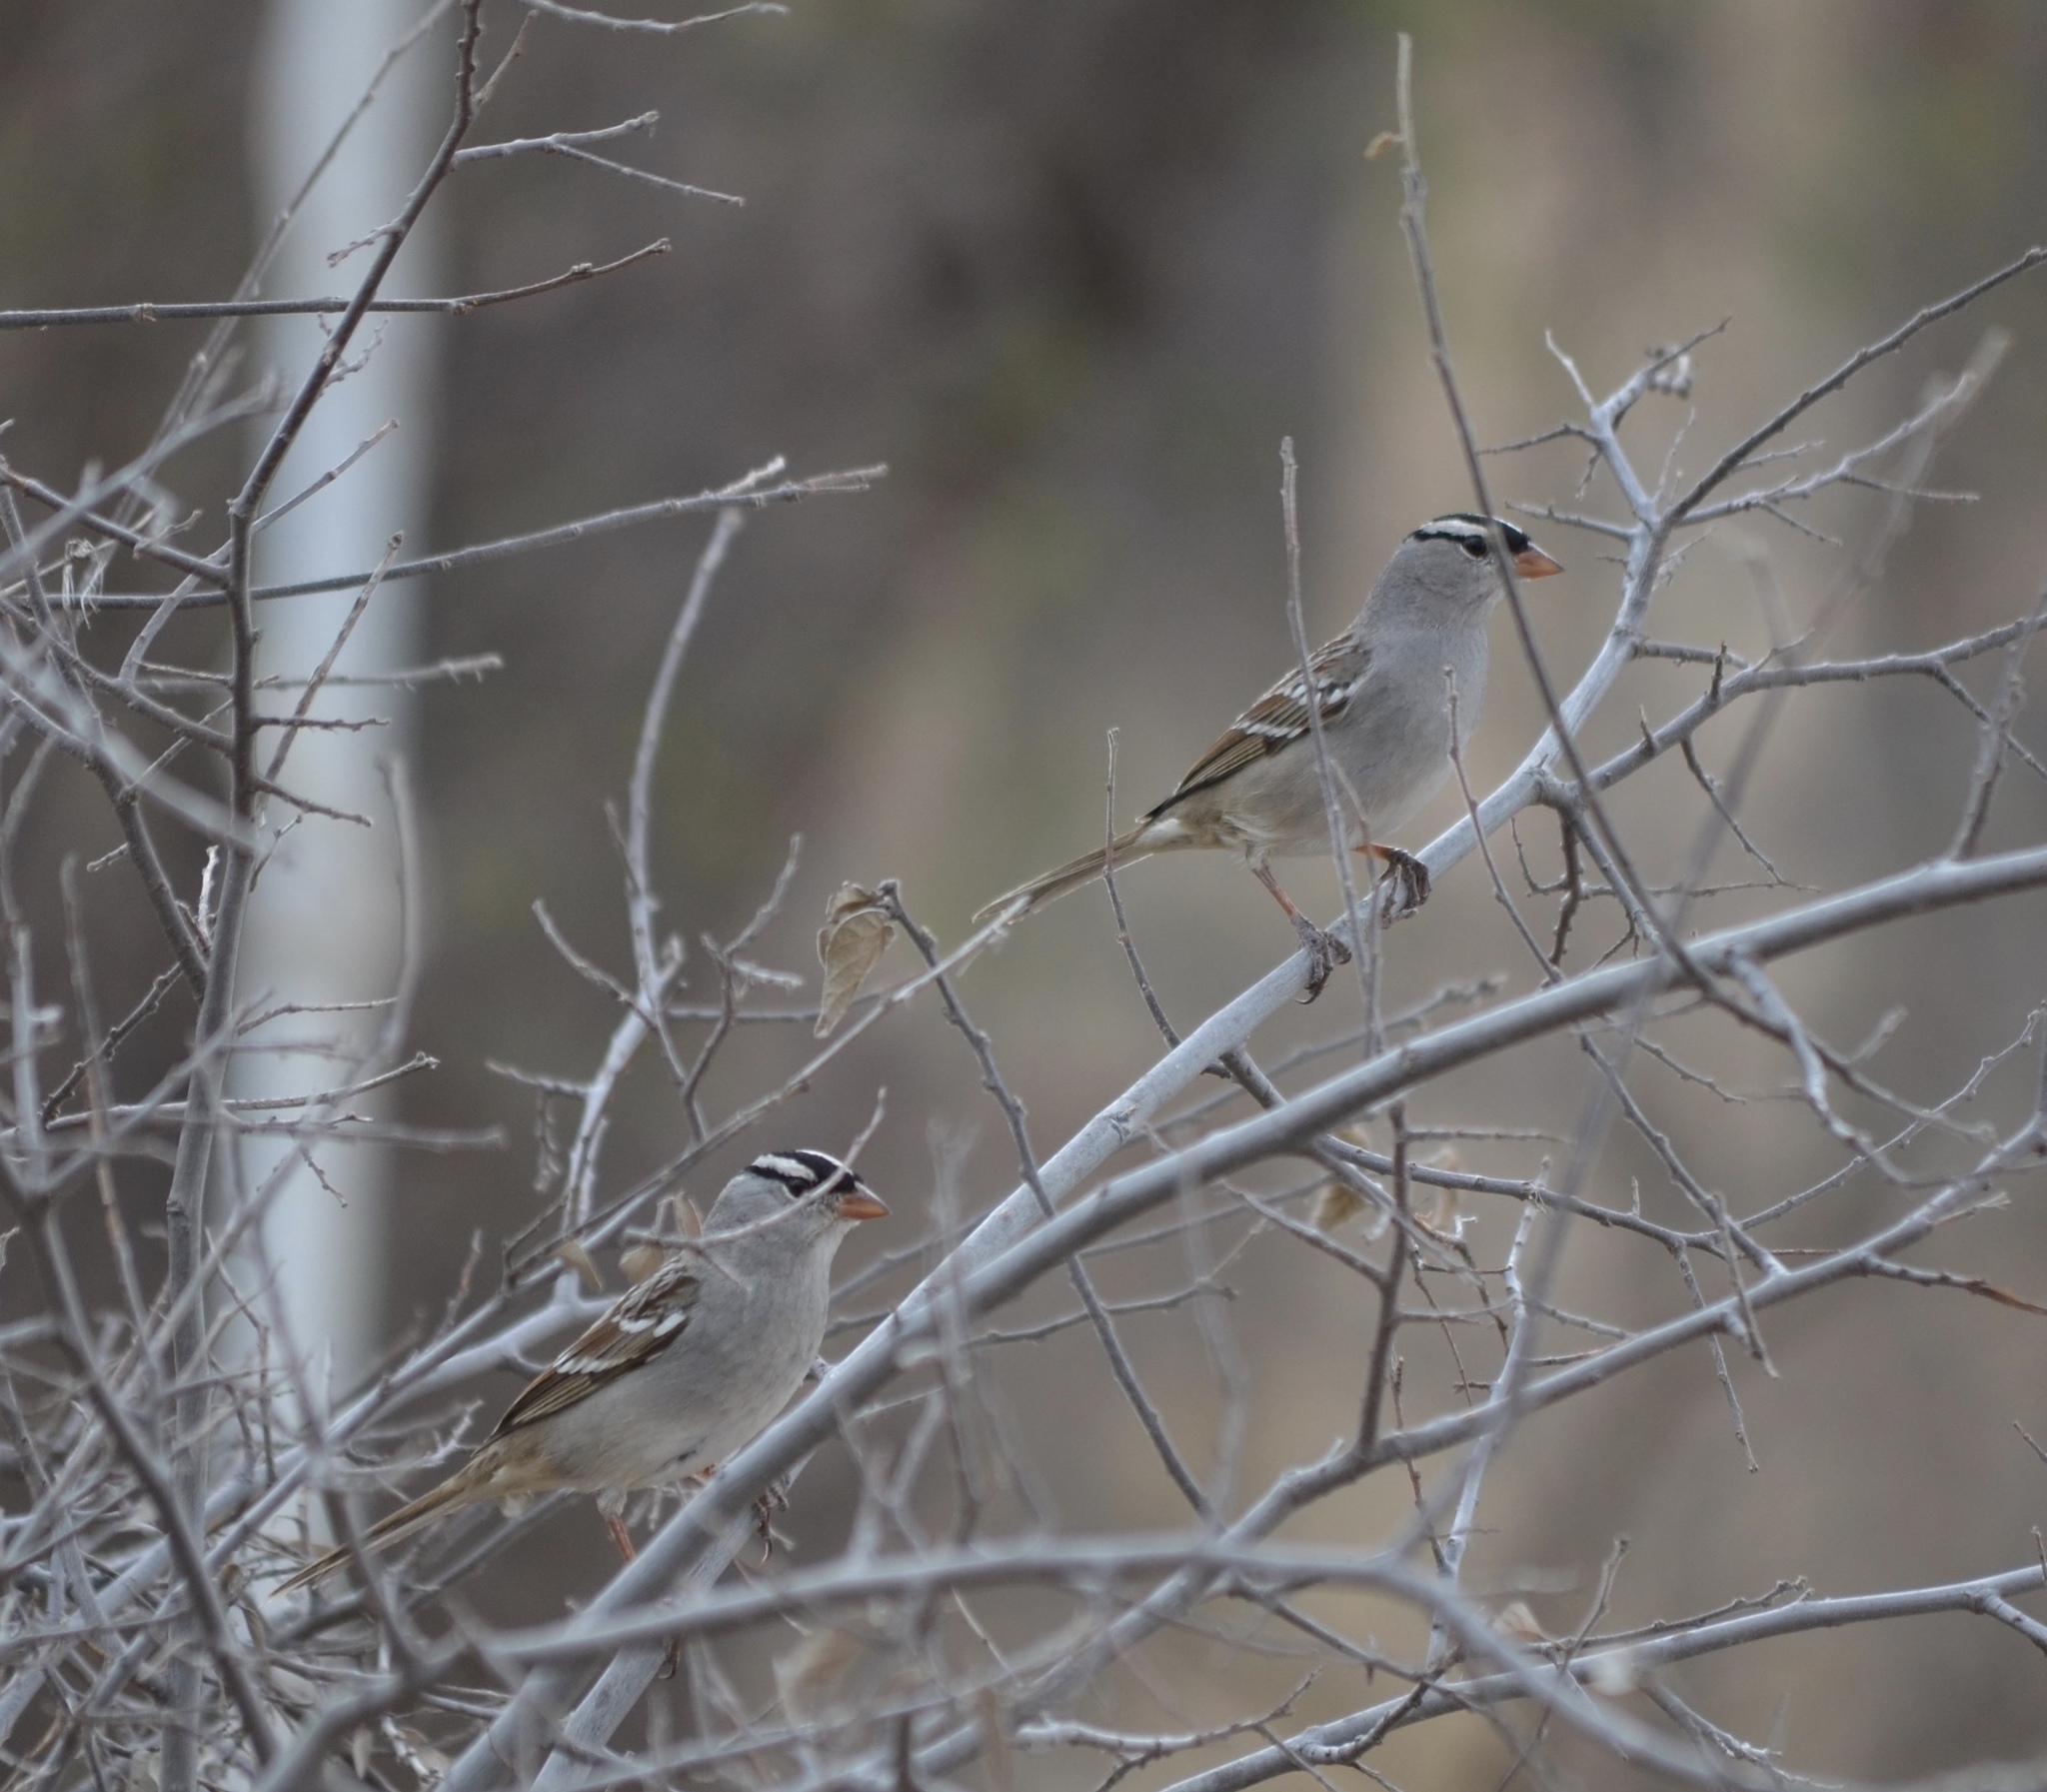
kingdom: Animalia
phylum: Chordata
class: Aves
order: Passeriformes
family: Passerellidae
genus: Zonotrichia
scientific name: Zonotrichia leucophrys
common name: White-crowned sparrow
